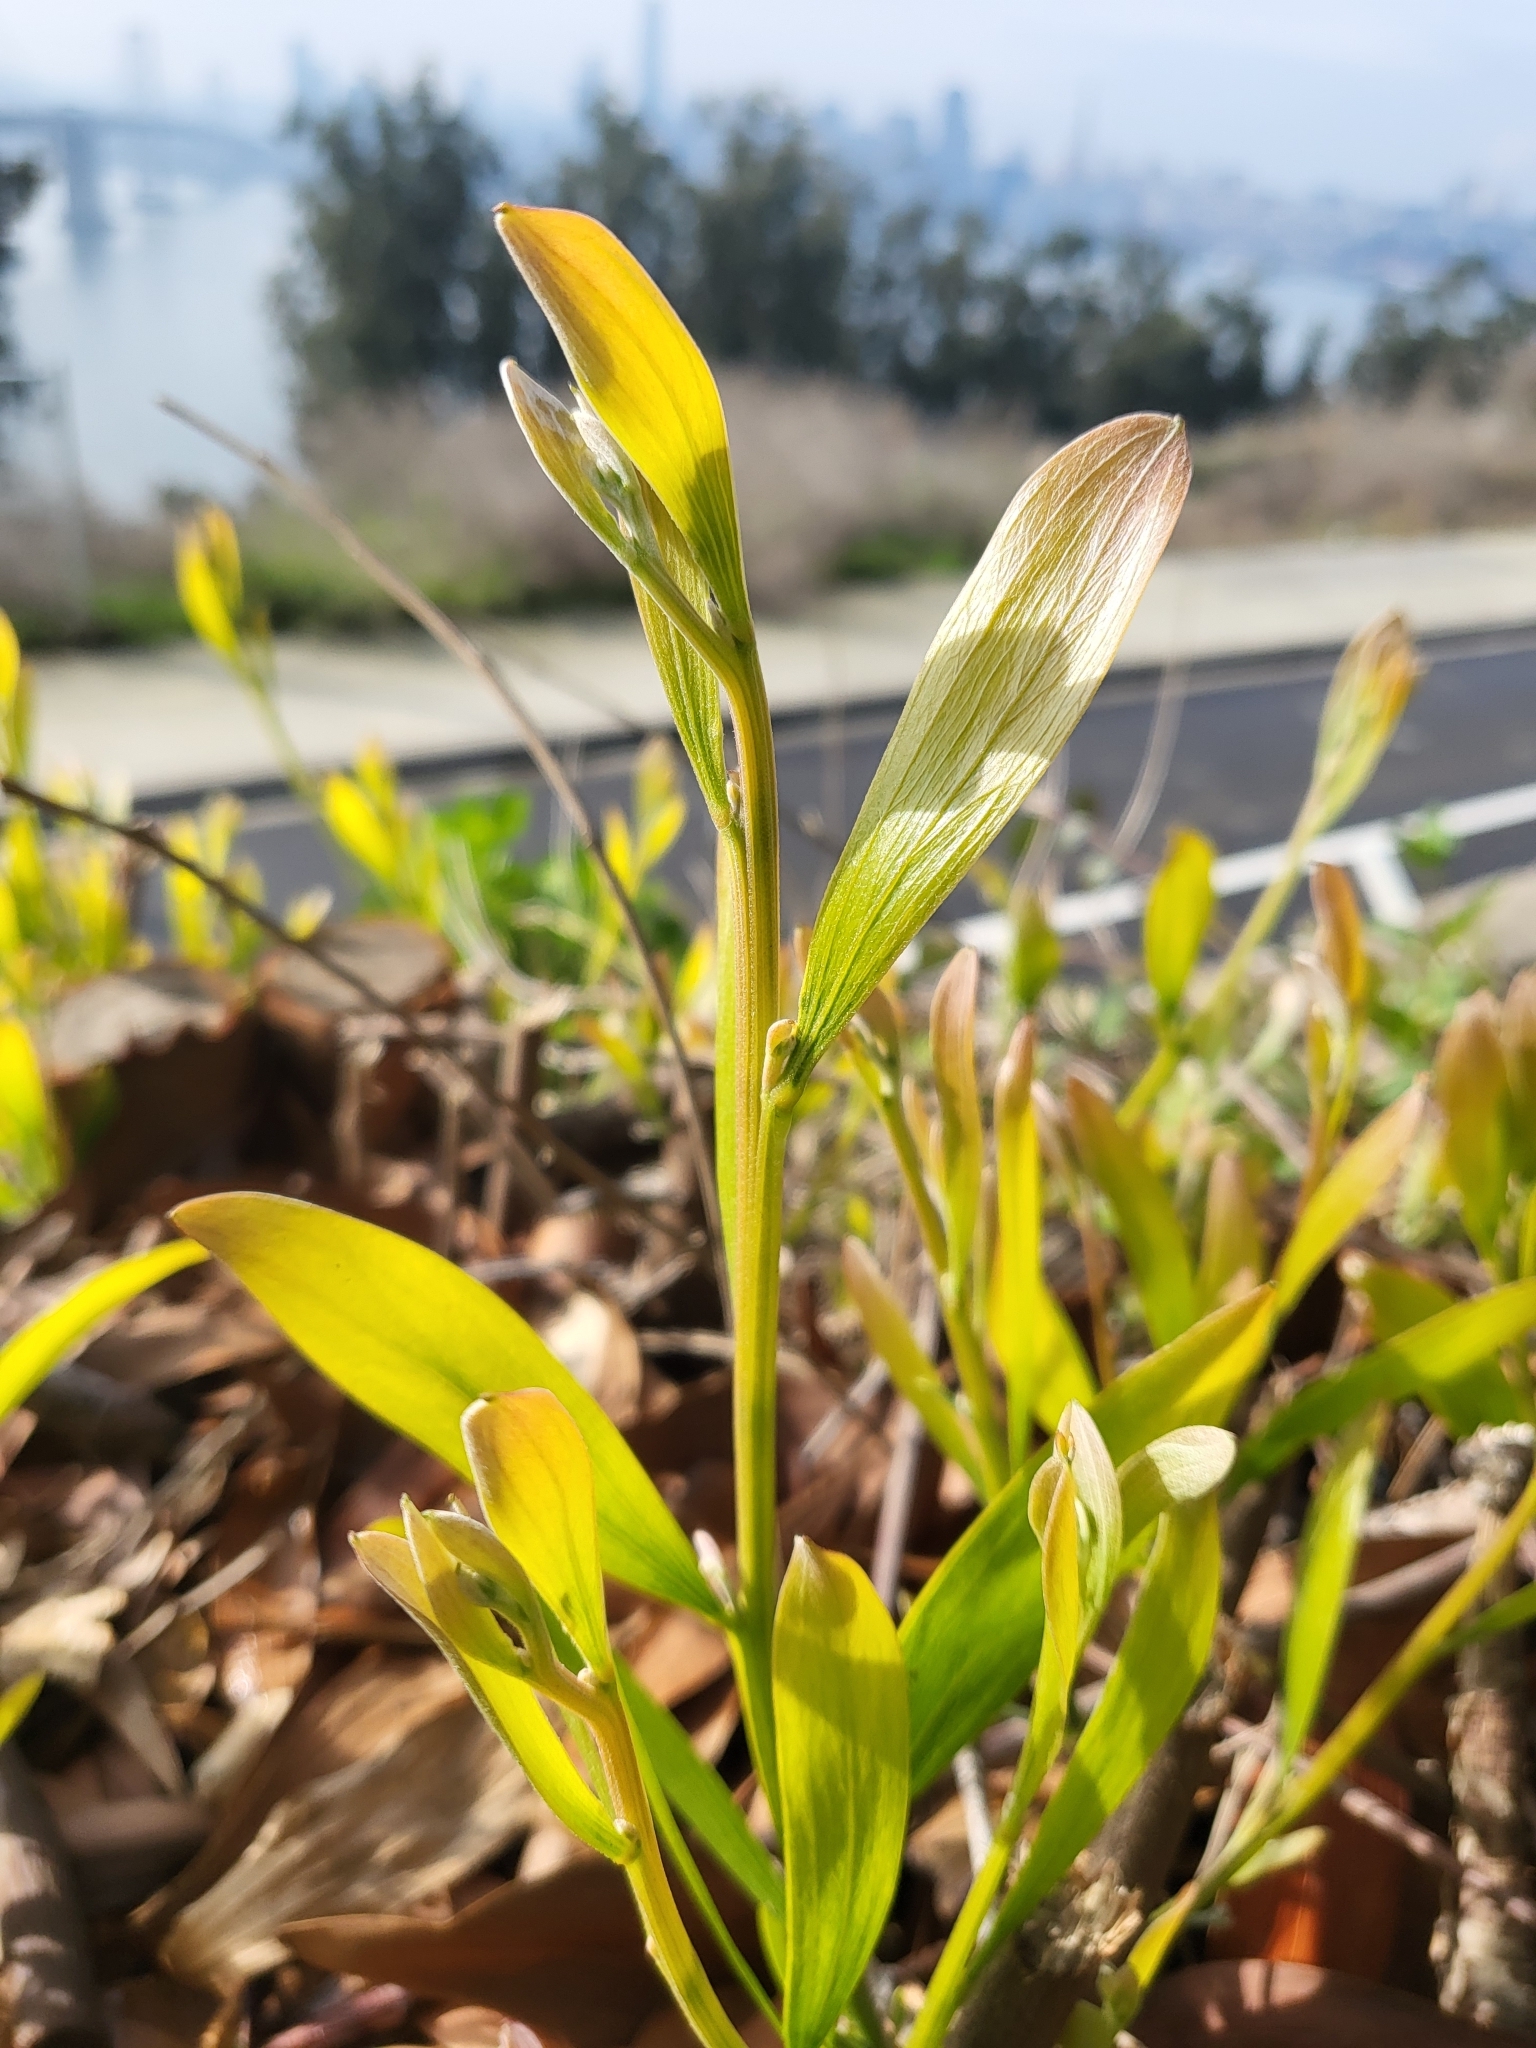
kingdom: Plantae
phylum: Tracheophyta
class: Magnoliopsida
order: Fabales
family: Fabaceae
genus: Acacia
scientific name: Acacia melanoxylon
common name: Blackwood
